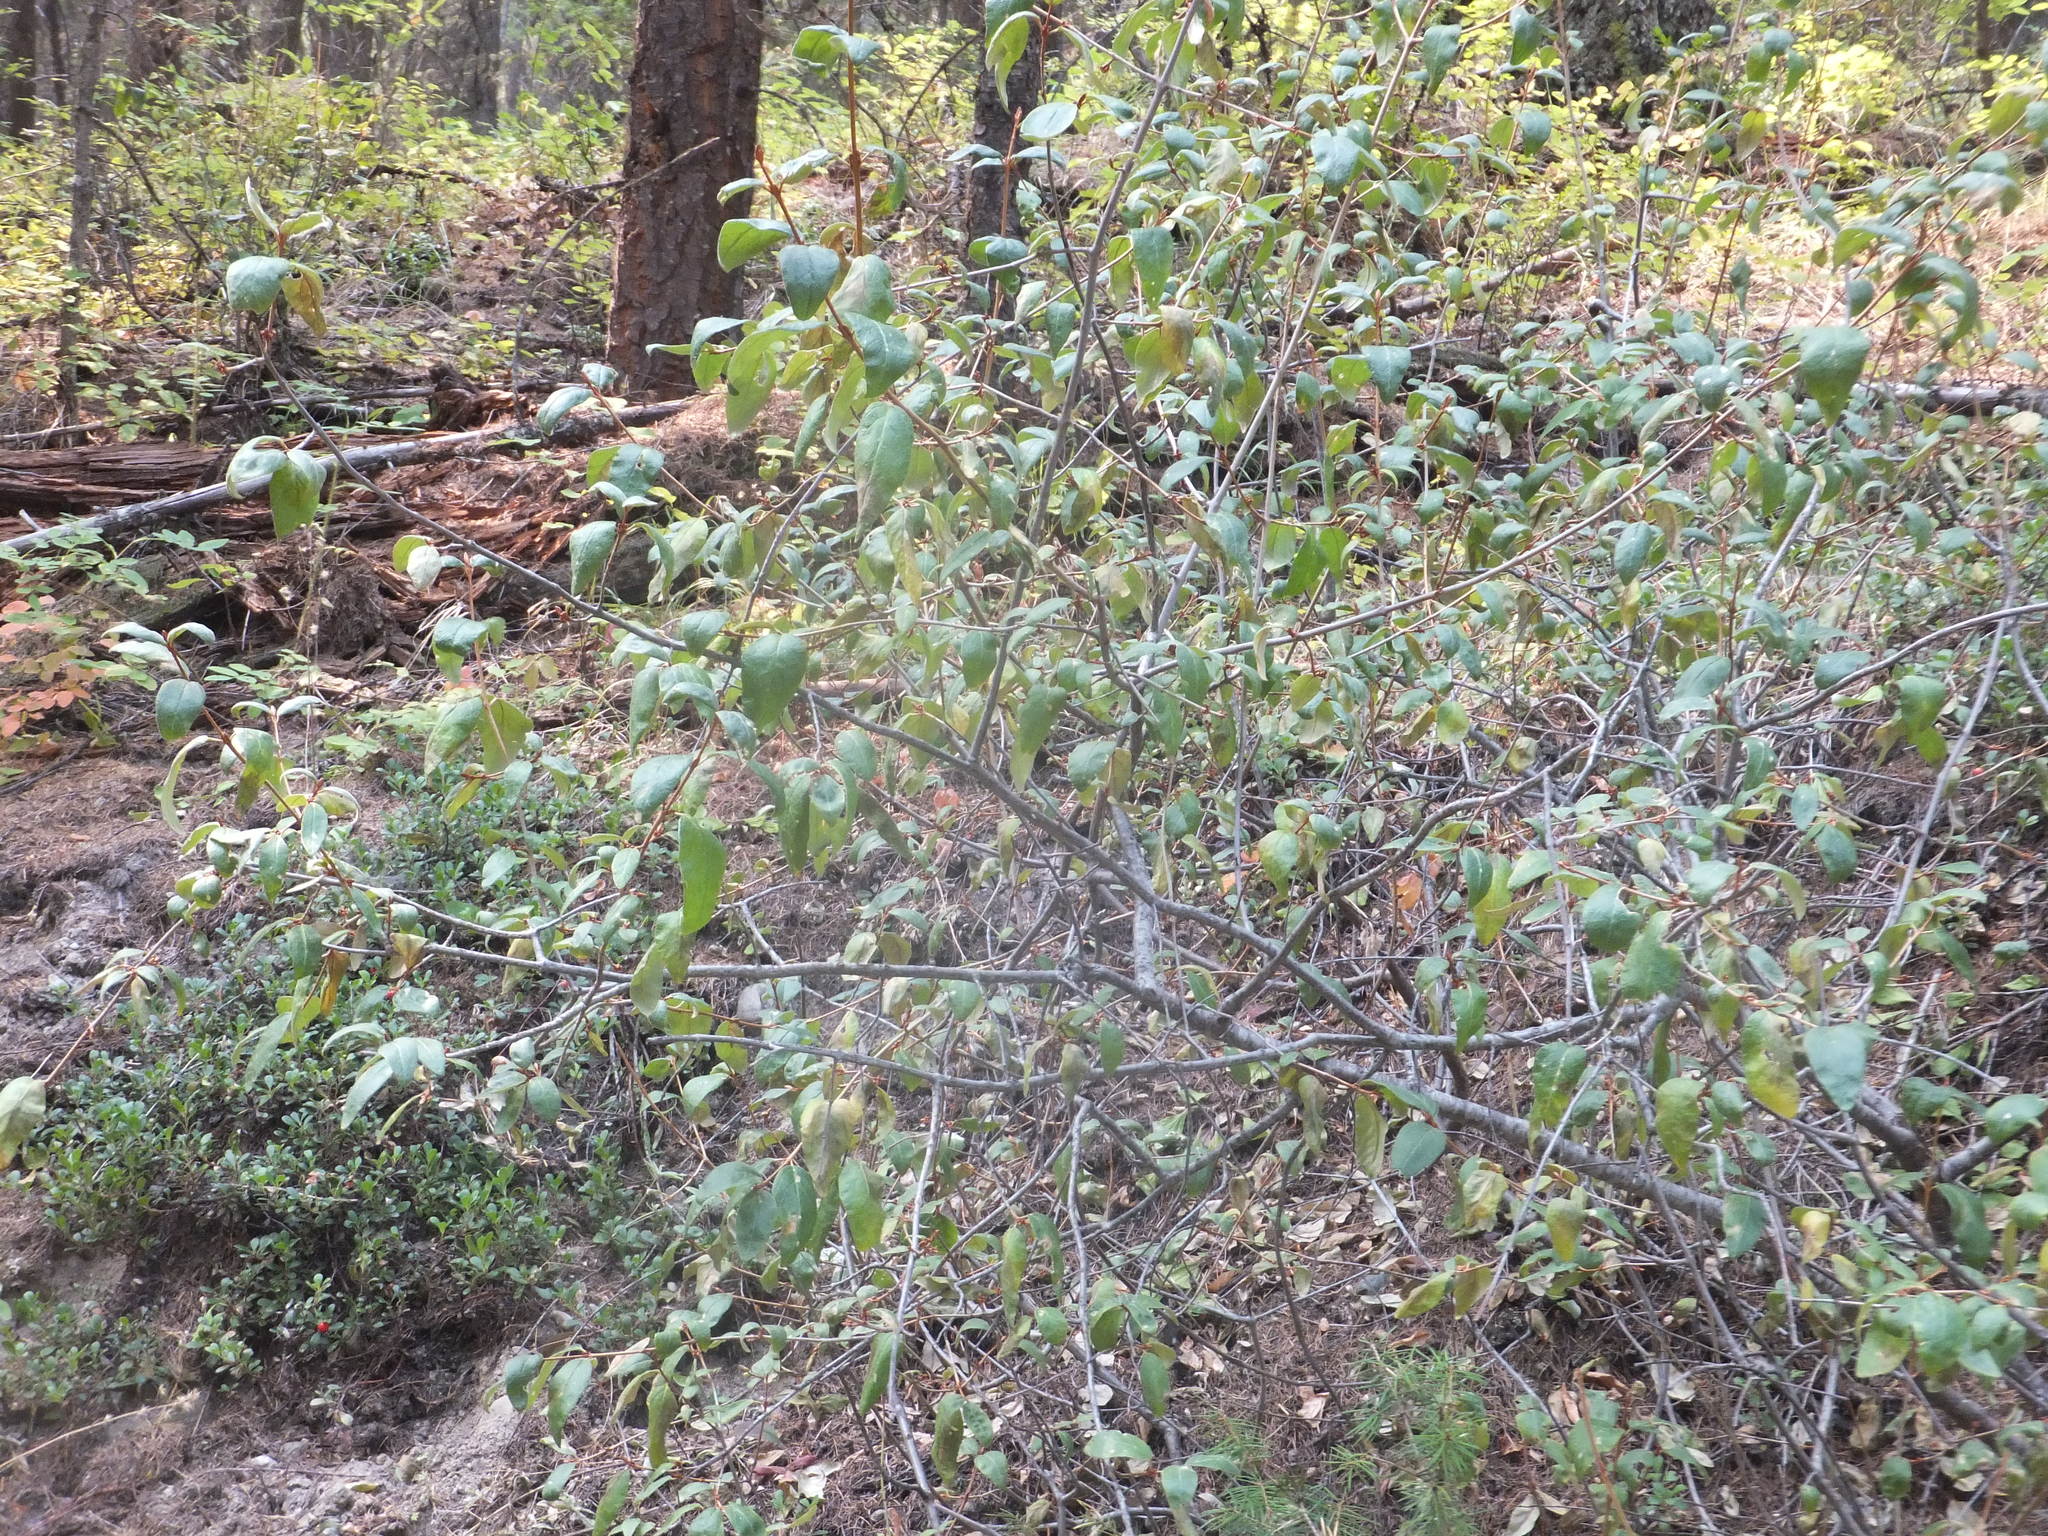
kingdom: Plantae
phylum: Tracheophyta
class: Magnoliopsida
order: Rosales
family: Elaeagnaceae
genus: Shepherdia
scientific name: Shepherdia canadensis
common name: Soapberry
